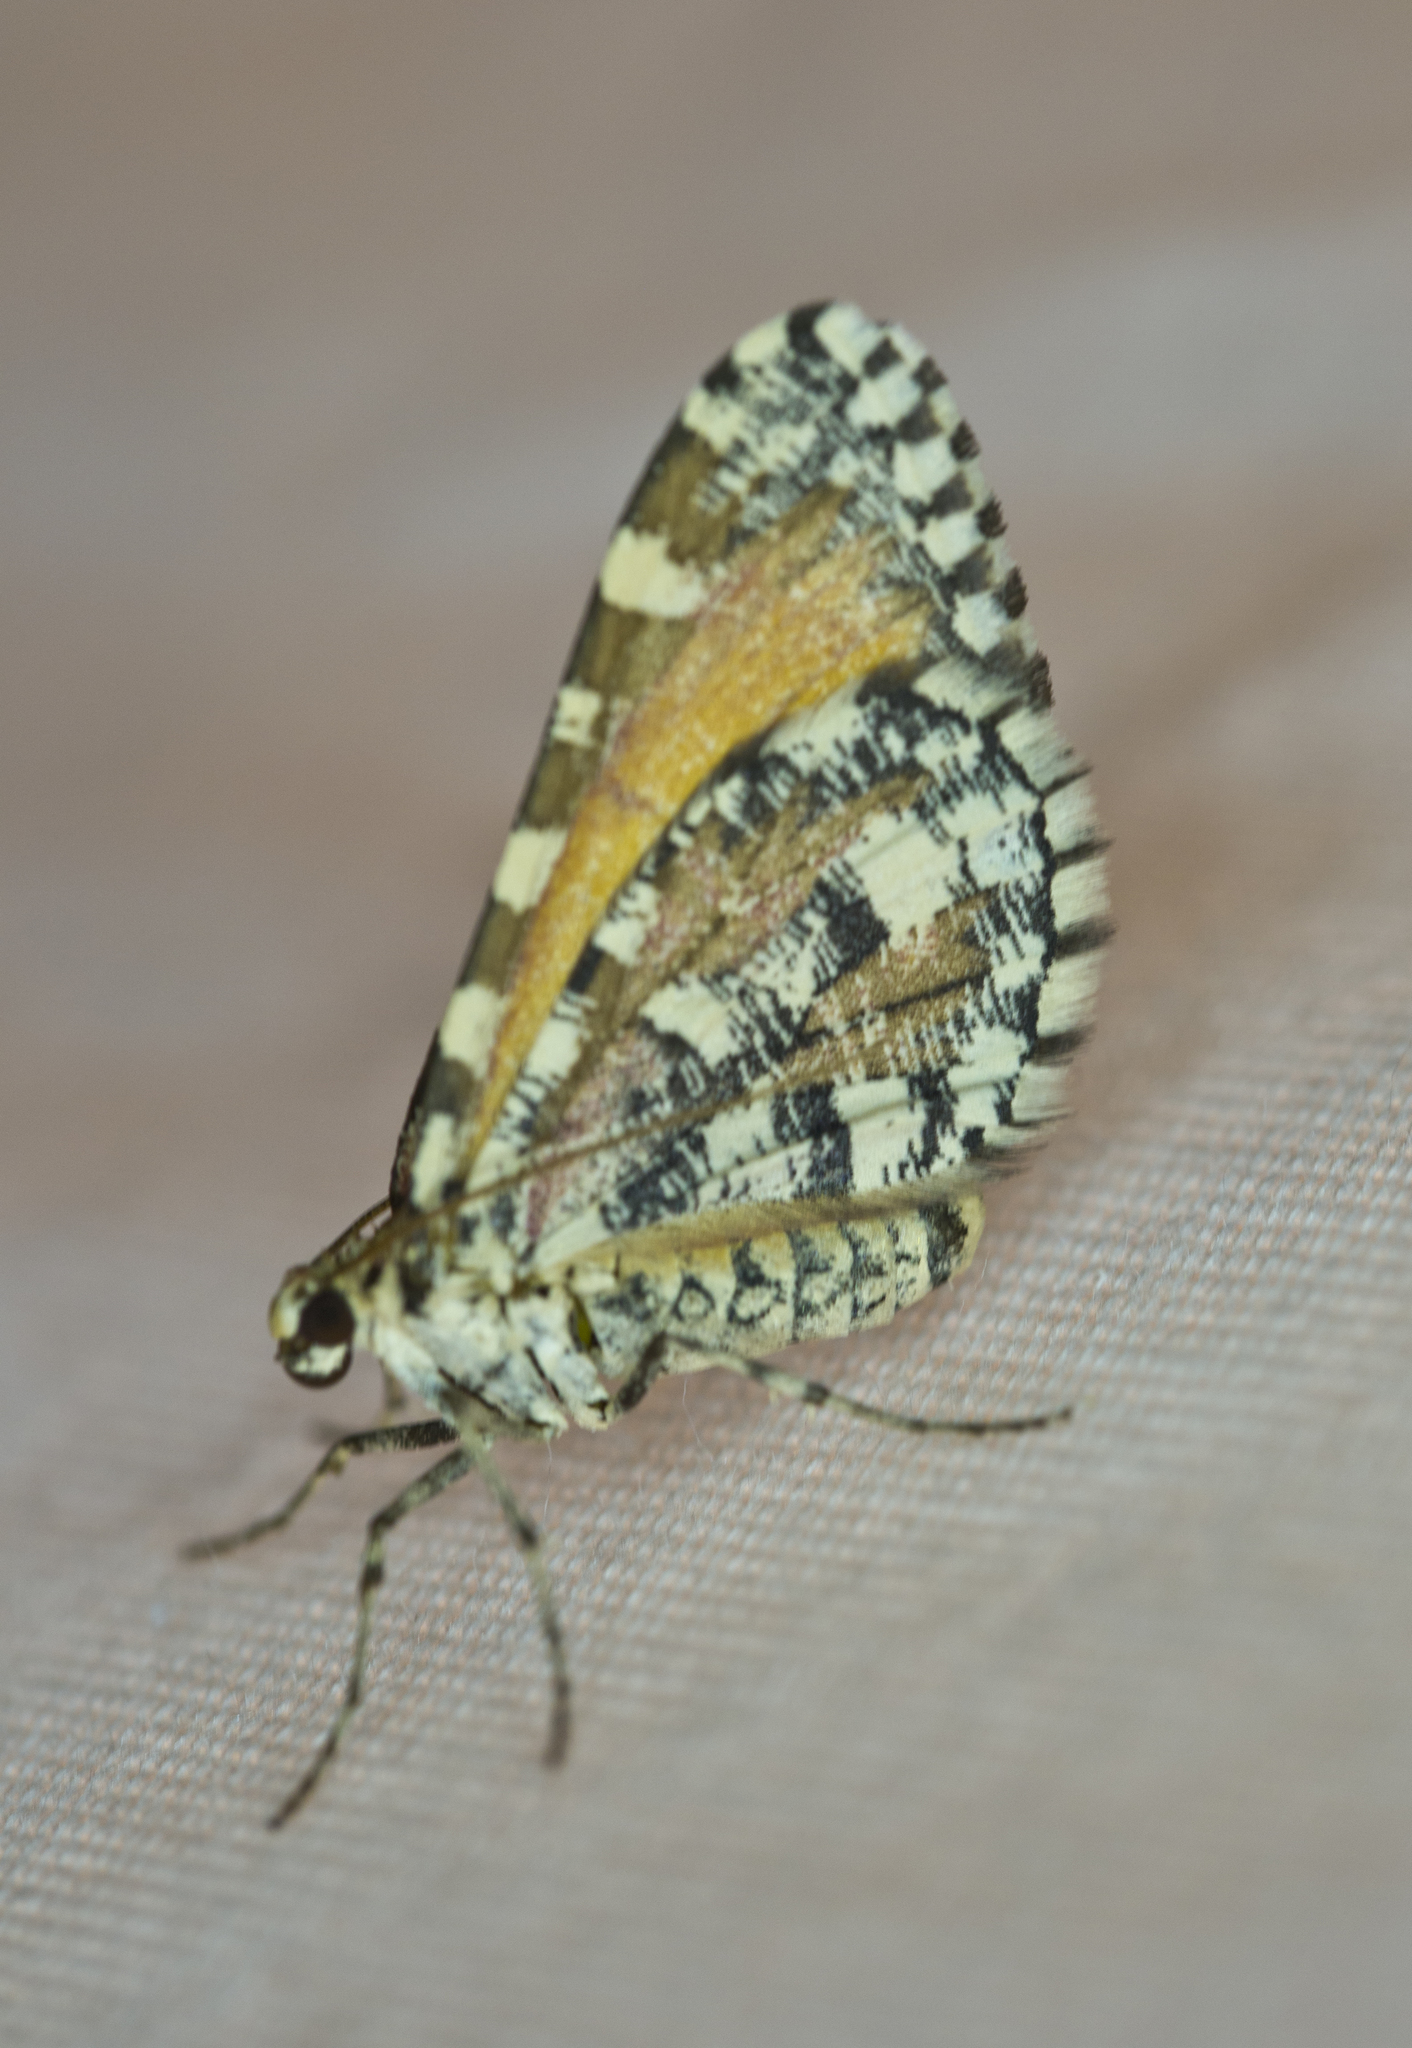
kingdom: Animalia
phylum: Arthropoda
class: Insecta
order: Lepidoptera
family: Geometridae
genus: Stamnodes
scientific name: Stamnodes tessellata
